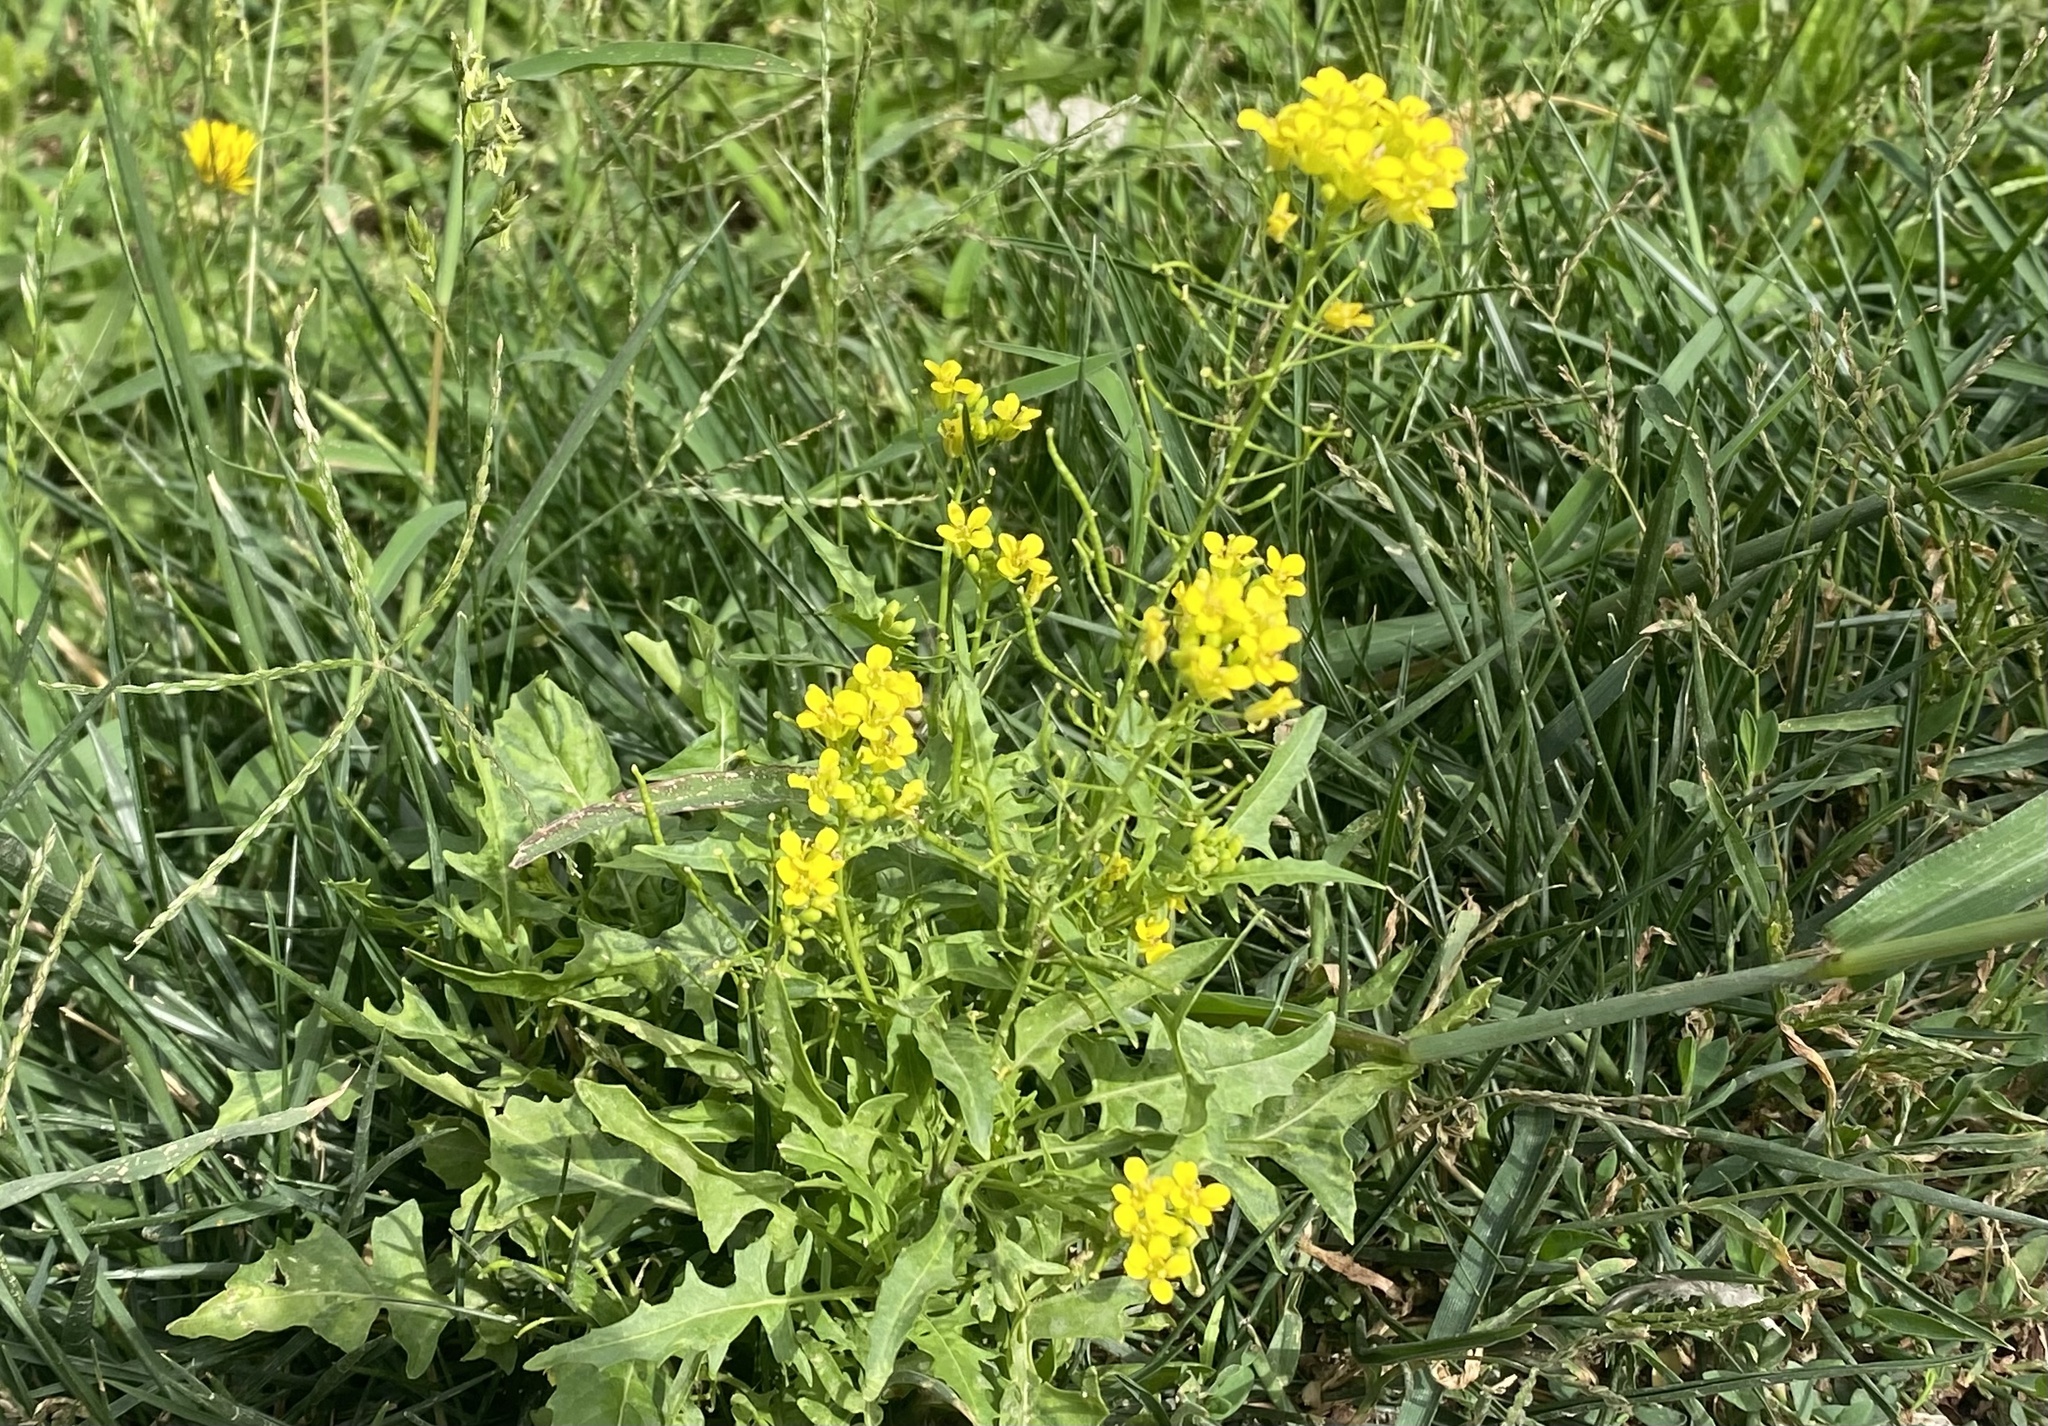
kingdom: Plantae
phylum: Tracheophyta
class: Magnoliopsida
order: Brassicales
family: Brassicaceae
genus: Sisymbrium
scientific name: Sisymbrium loeselii
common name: False london-rocket
